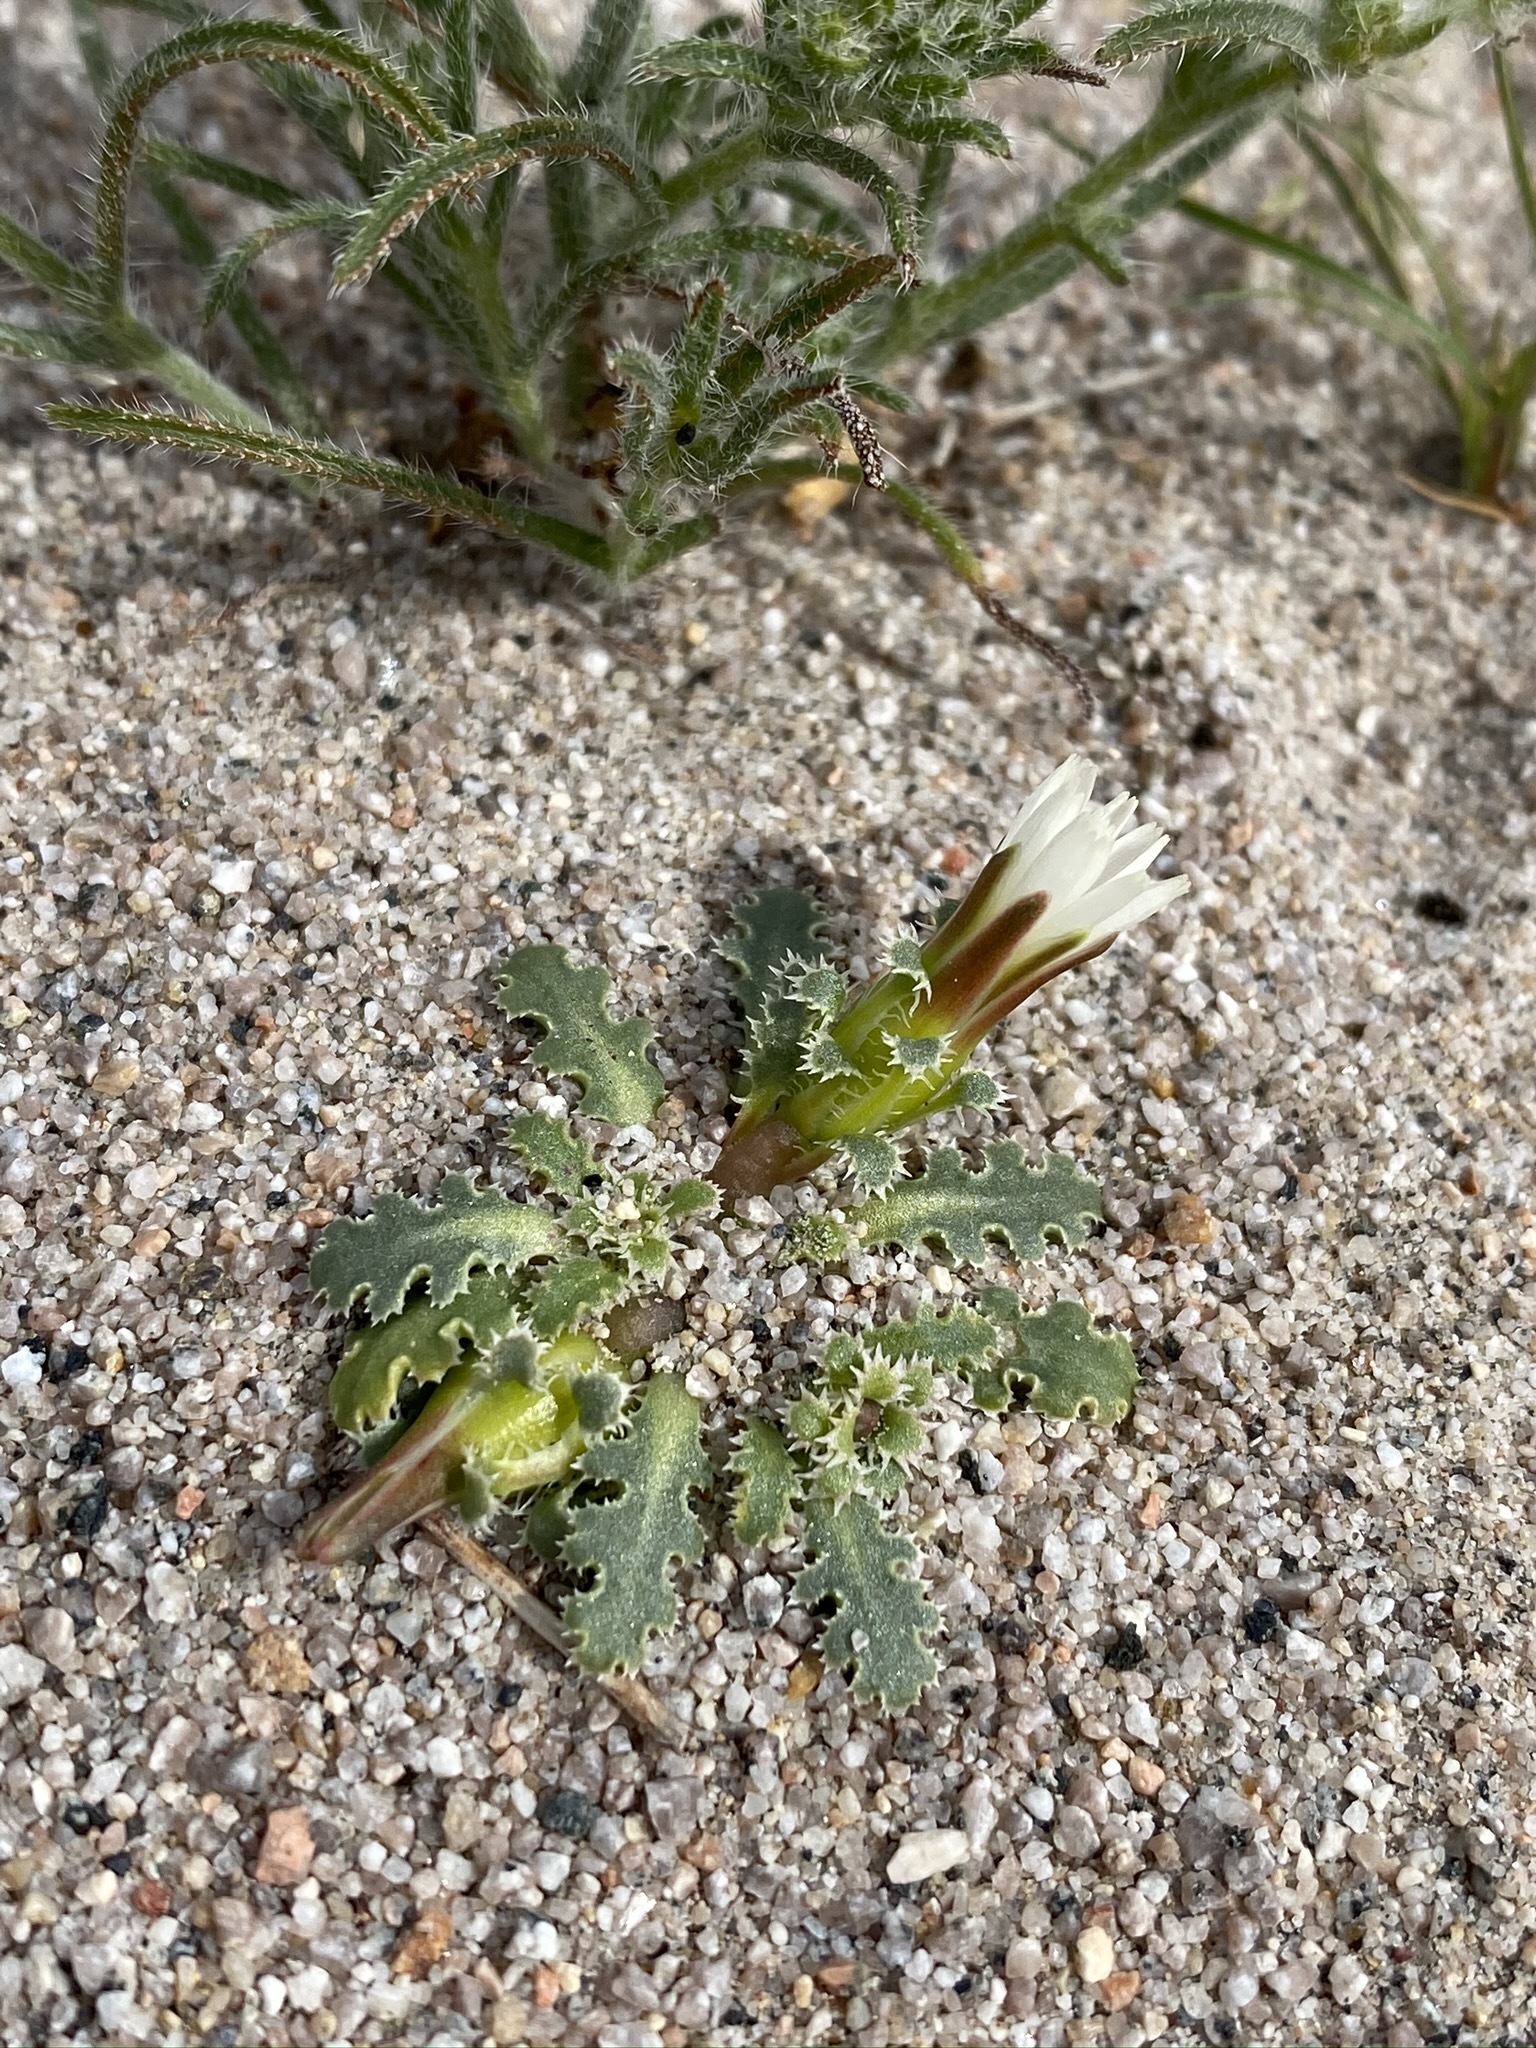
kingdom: Plantae
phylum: Tracheophyta
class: Magnoliopsida
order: Asterales
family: Asteraceae
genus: Glyptopleura
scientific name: Glyptopleura marginata
